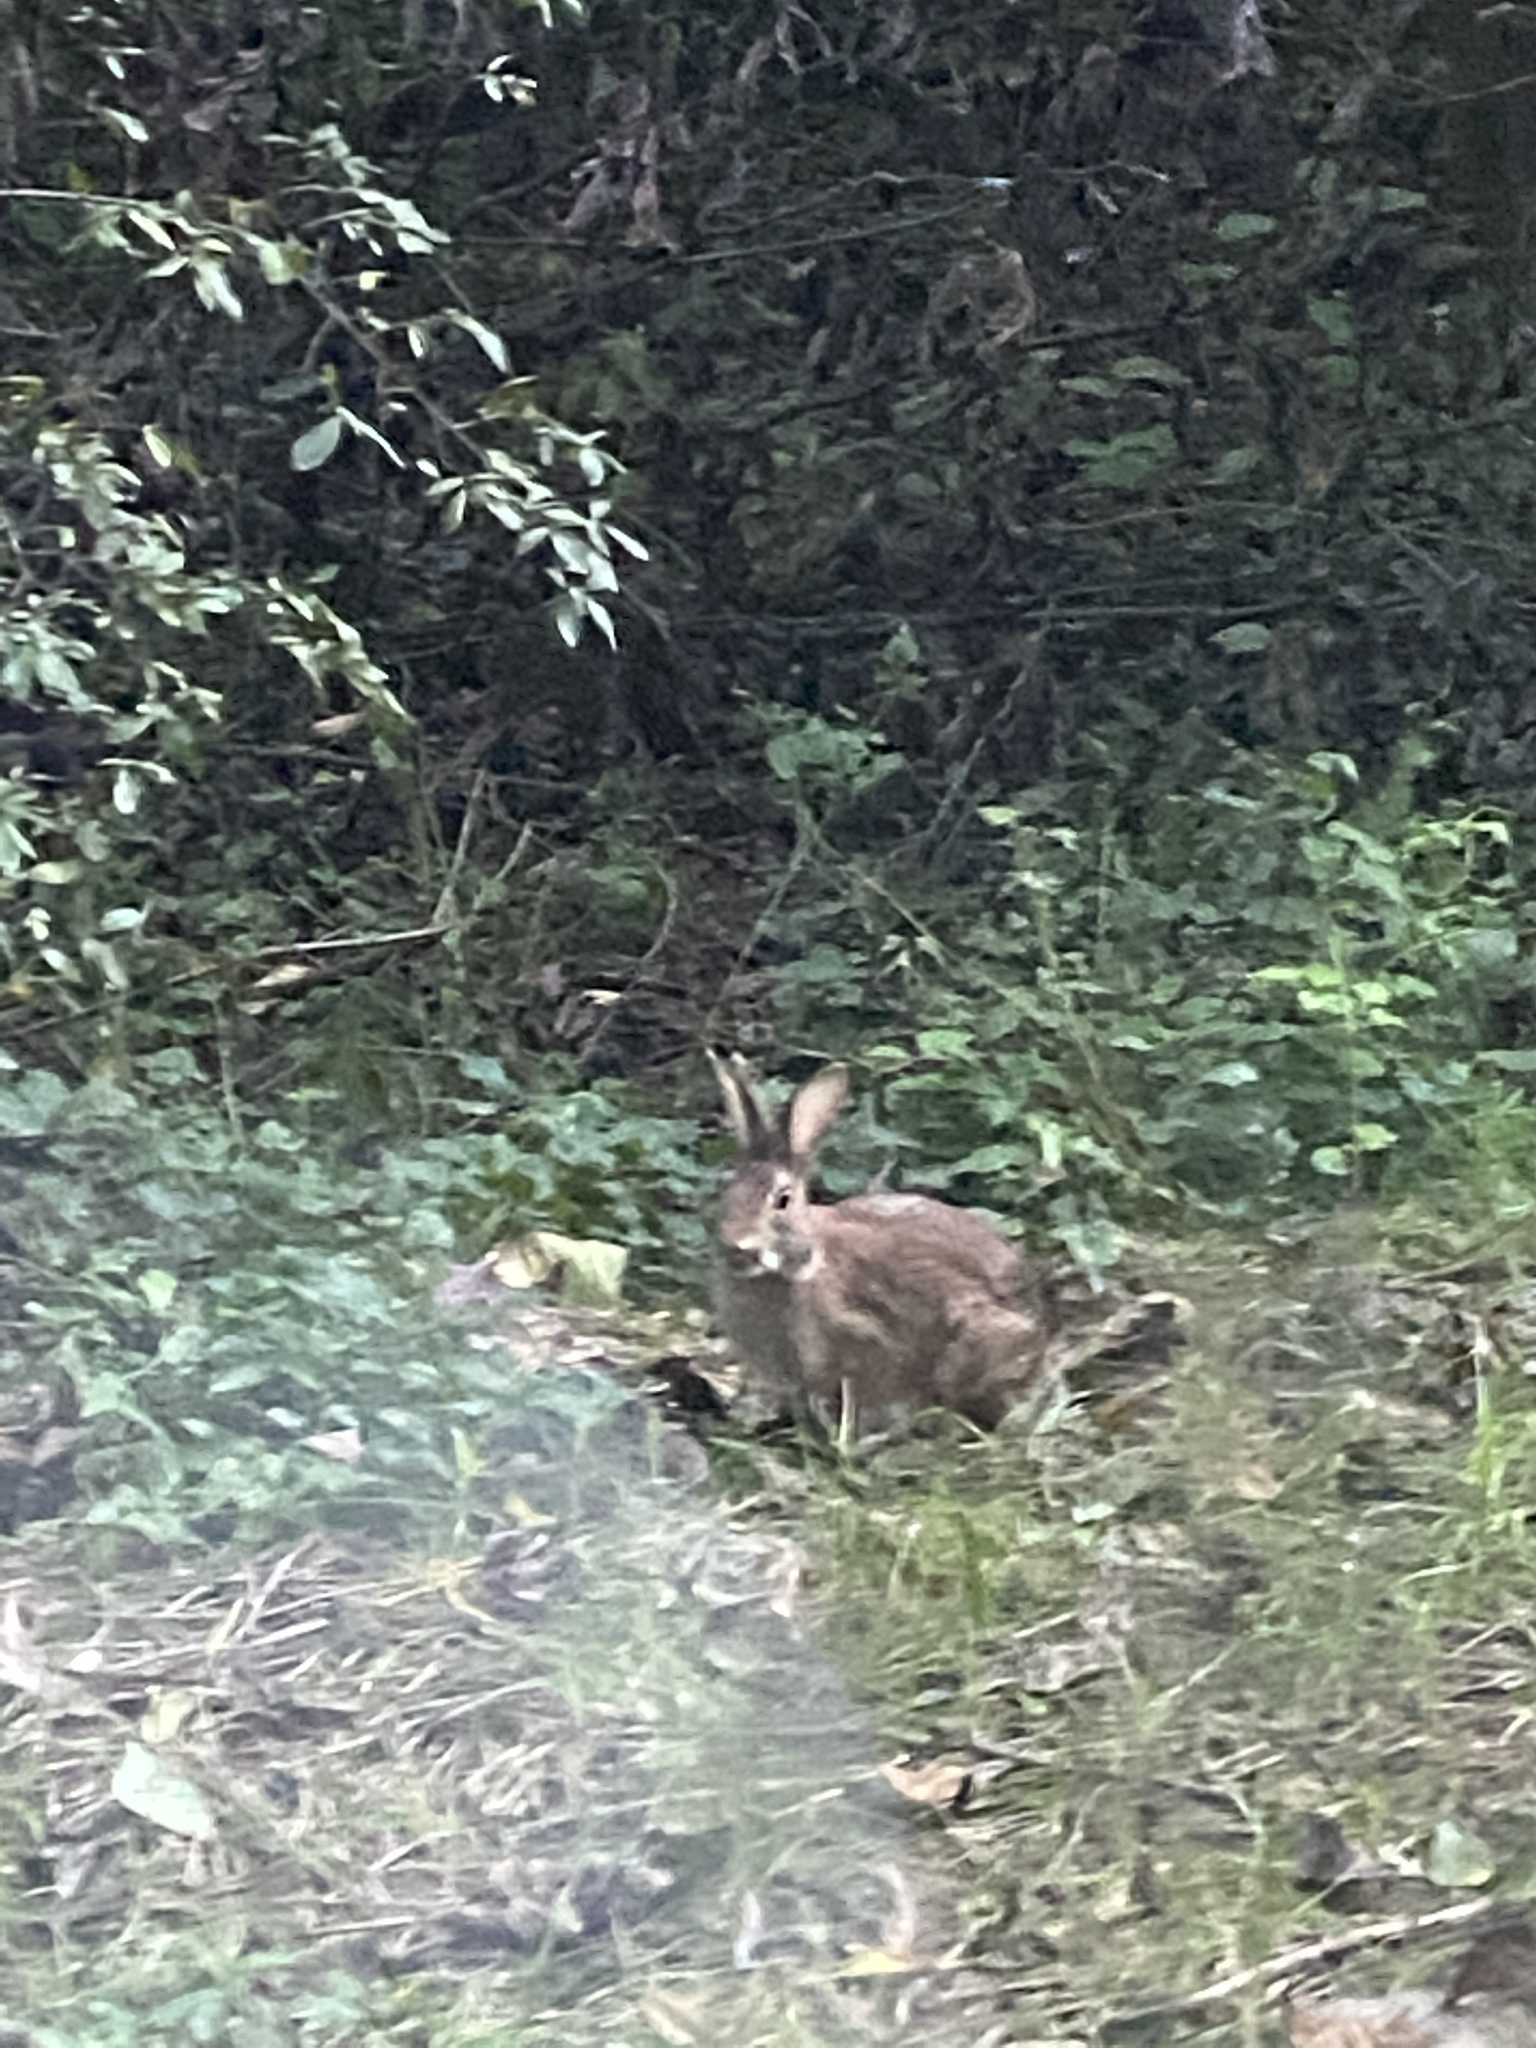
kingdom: Animalia
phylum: Chordata
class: Mammalia
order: Lagomorpha
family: Leporidae
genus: Sylvilagus
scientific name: Sylvilagus floridanus
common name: Eastern cottontail
